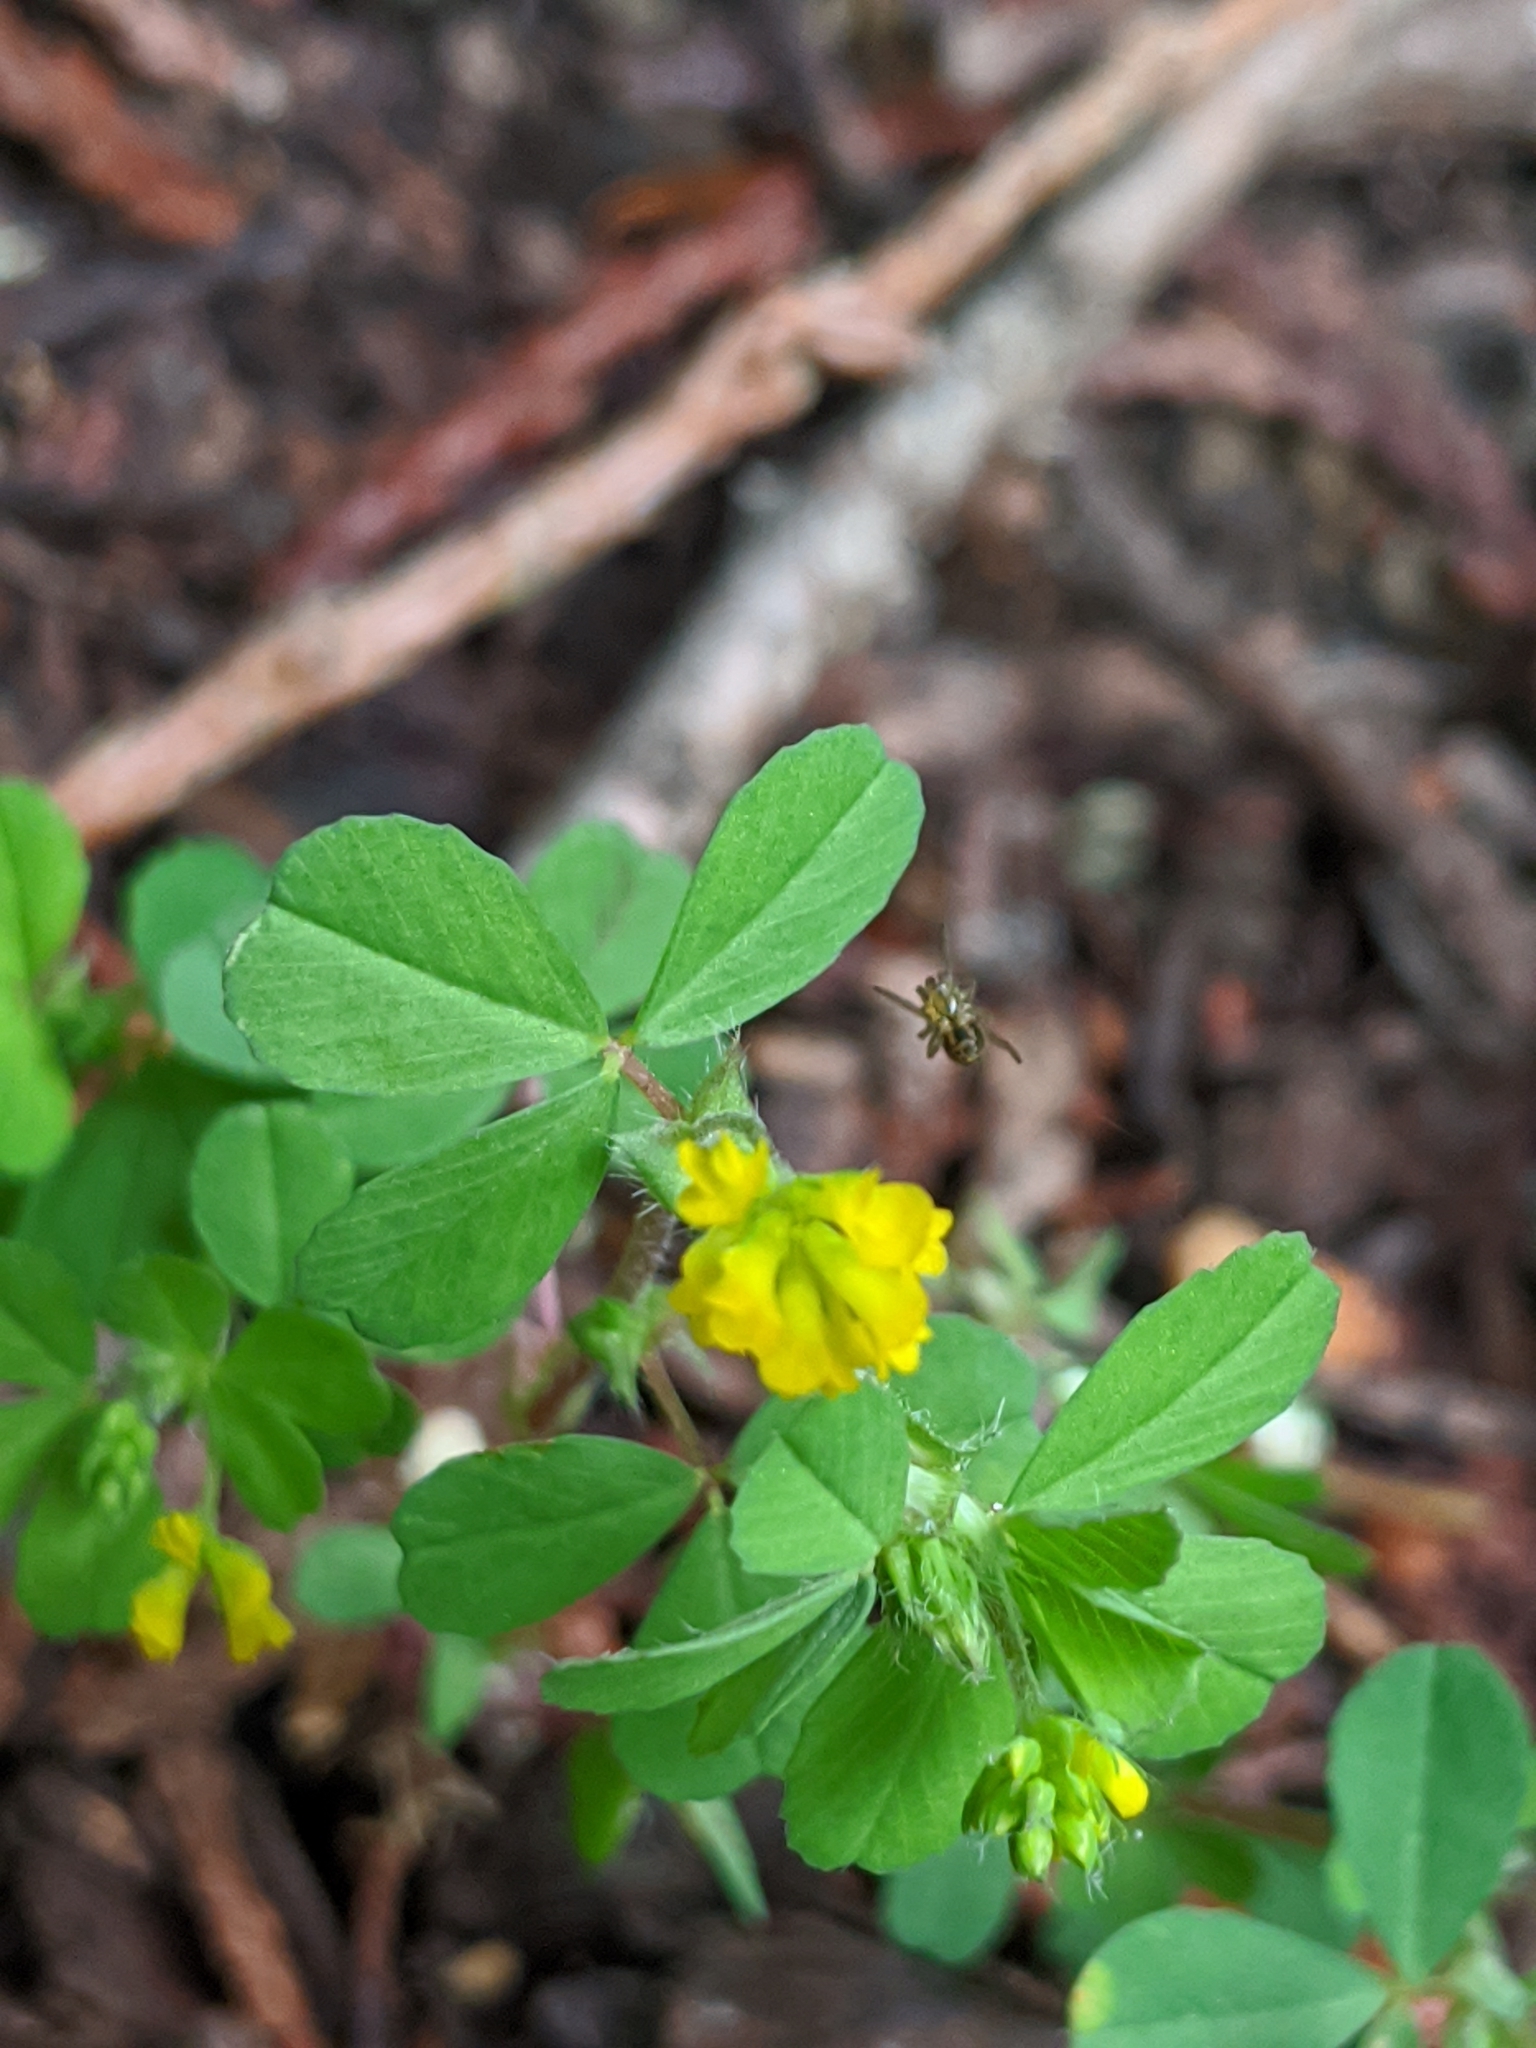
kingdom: Plantae
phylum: Tracheophyta
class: Magnoliopsida
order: Fabales
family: Fabaceae
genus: Trifolium
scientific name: Trifolium dubium
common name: Suckling clover
